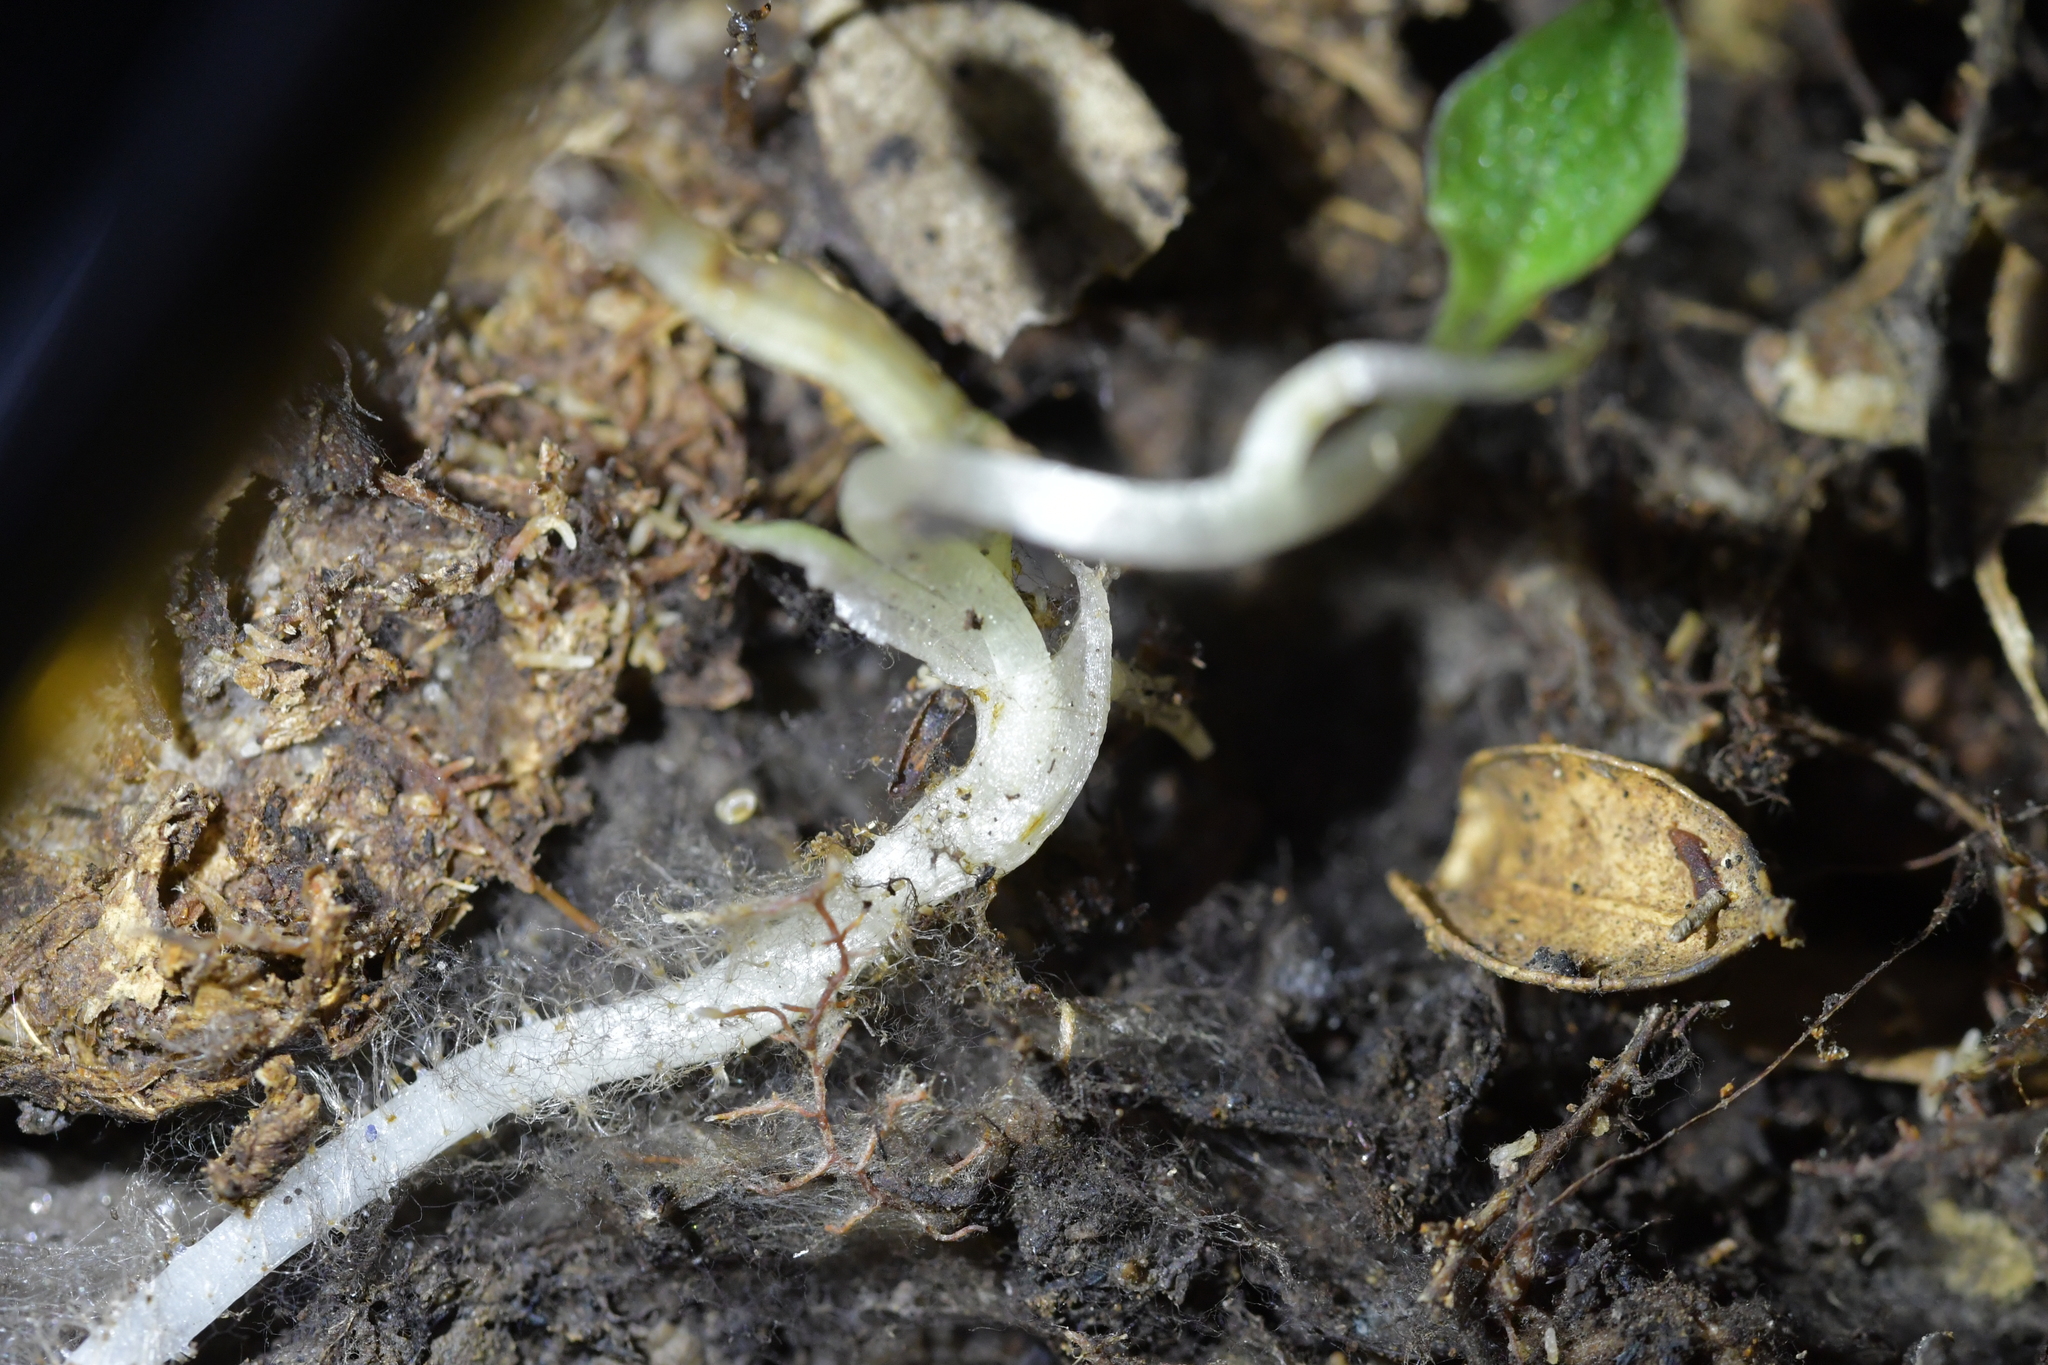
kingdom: Plantae
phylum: Tracheophyta
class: Liliopsida
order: Asparagales
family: Orchidaceae
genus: Corybas
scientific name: Corybas cheesemanii
